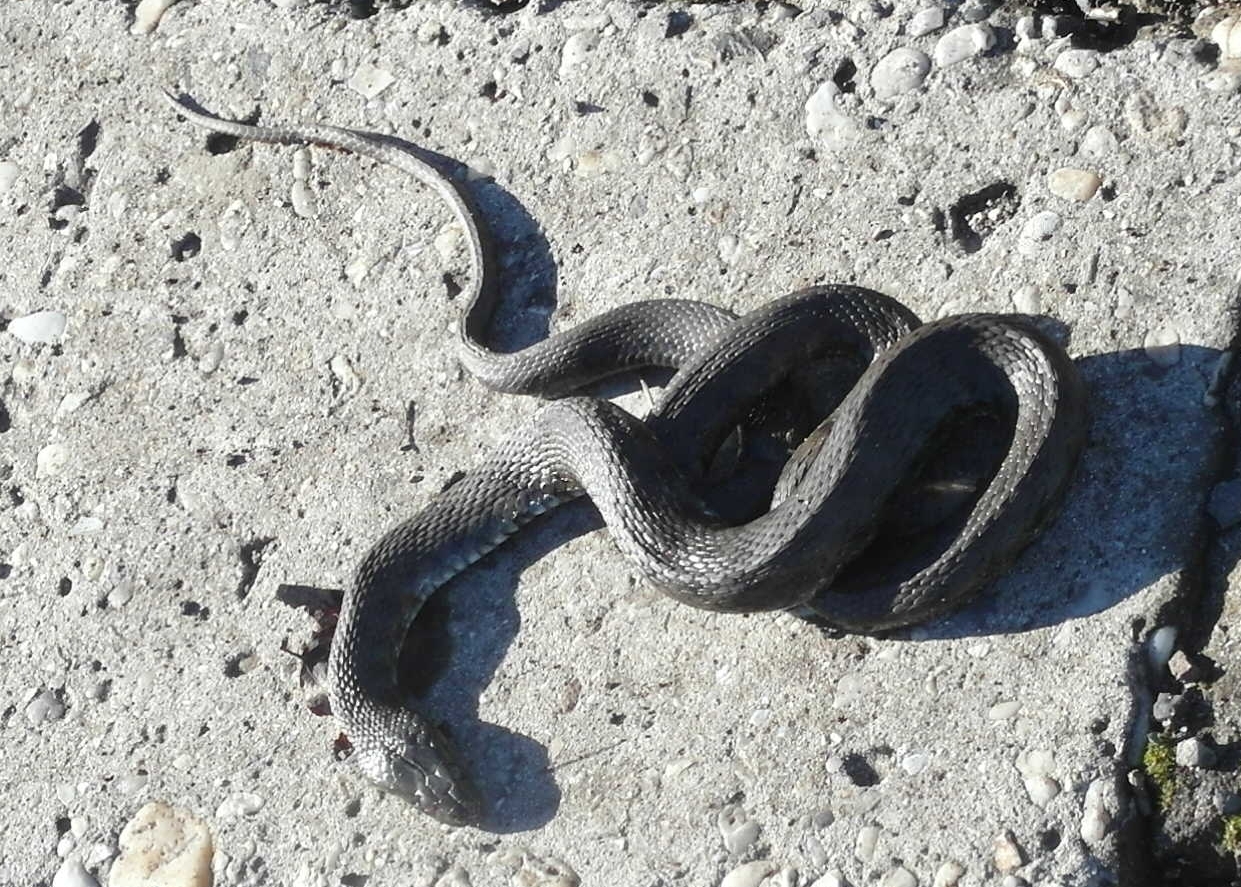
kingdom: Animalia
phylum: Chordata
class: Squamata
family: Colubridae
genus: Natrix
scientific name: Natrix tessellata
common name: Dice snake
